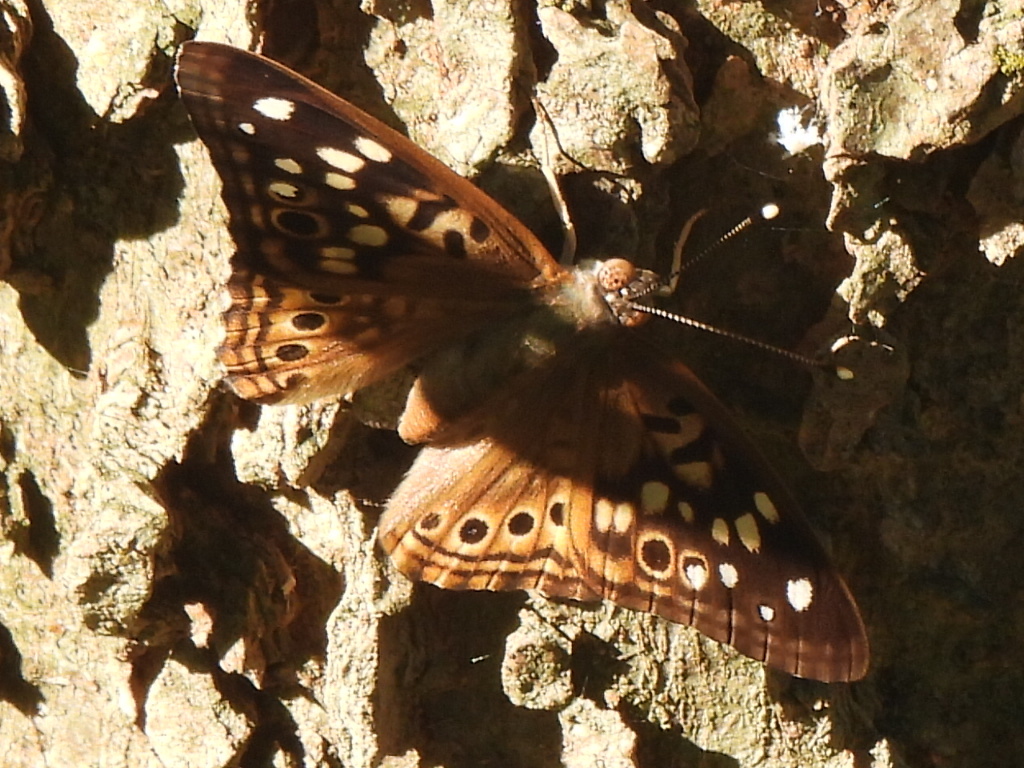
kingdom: Animalia
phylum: Arthropoda
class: Insecta
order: Lepidoptera
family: Nymphalidae
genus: Asterocampa
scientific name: Asterocampa celtis
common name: Hackberry emperor
